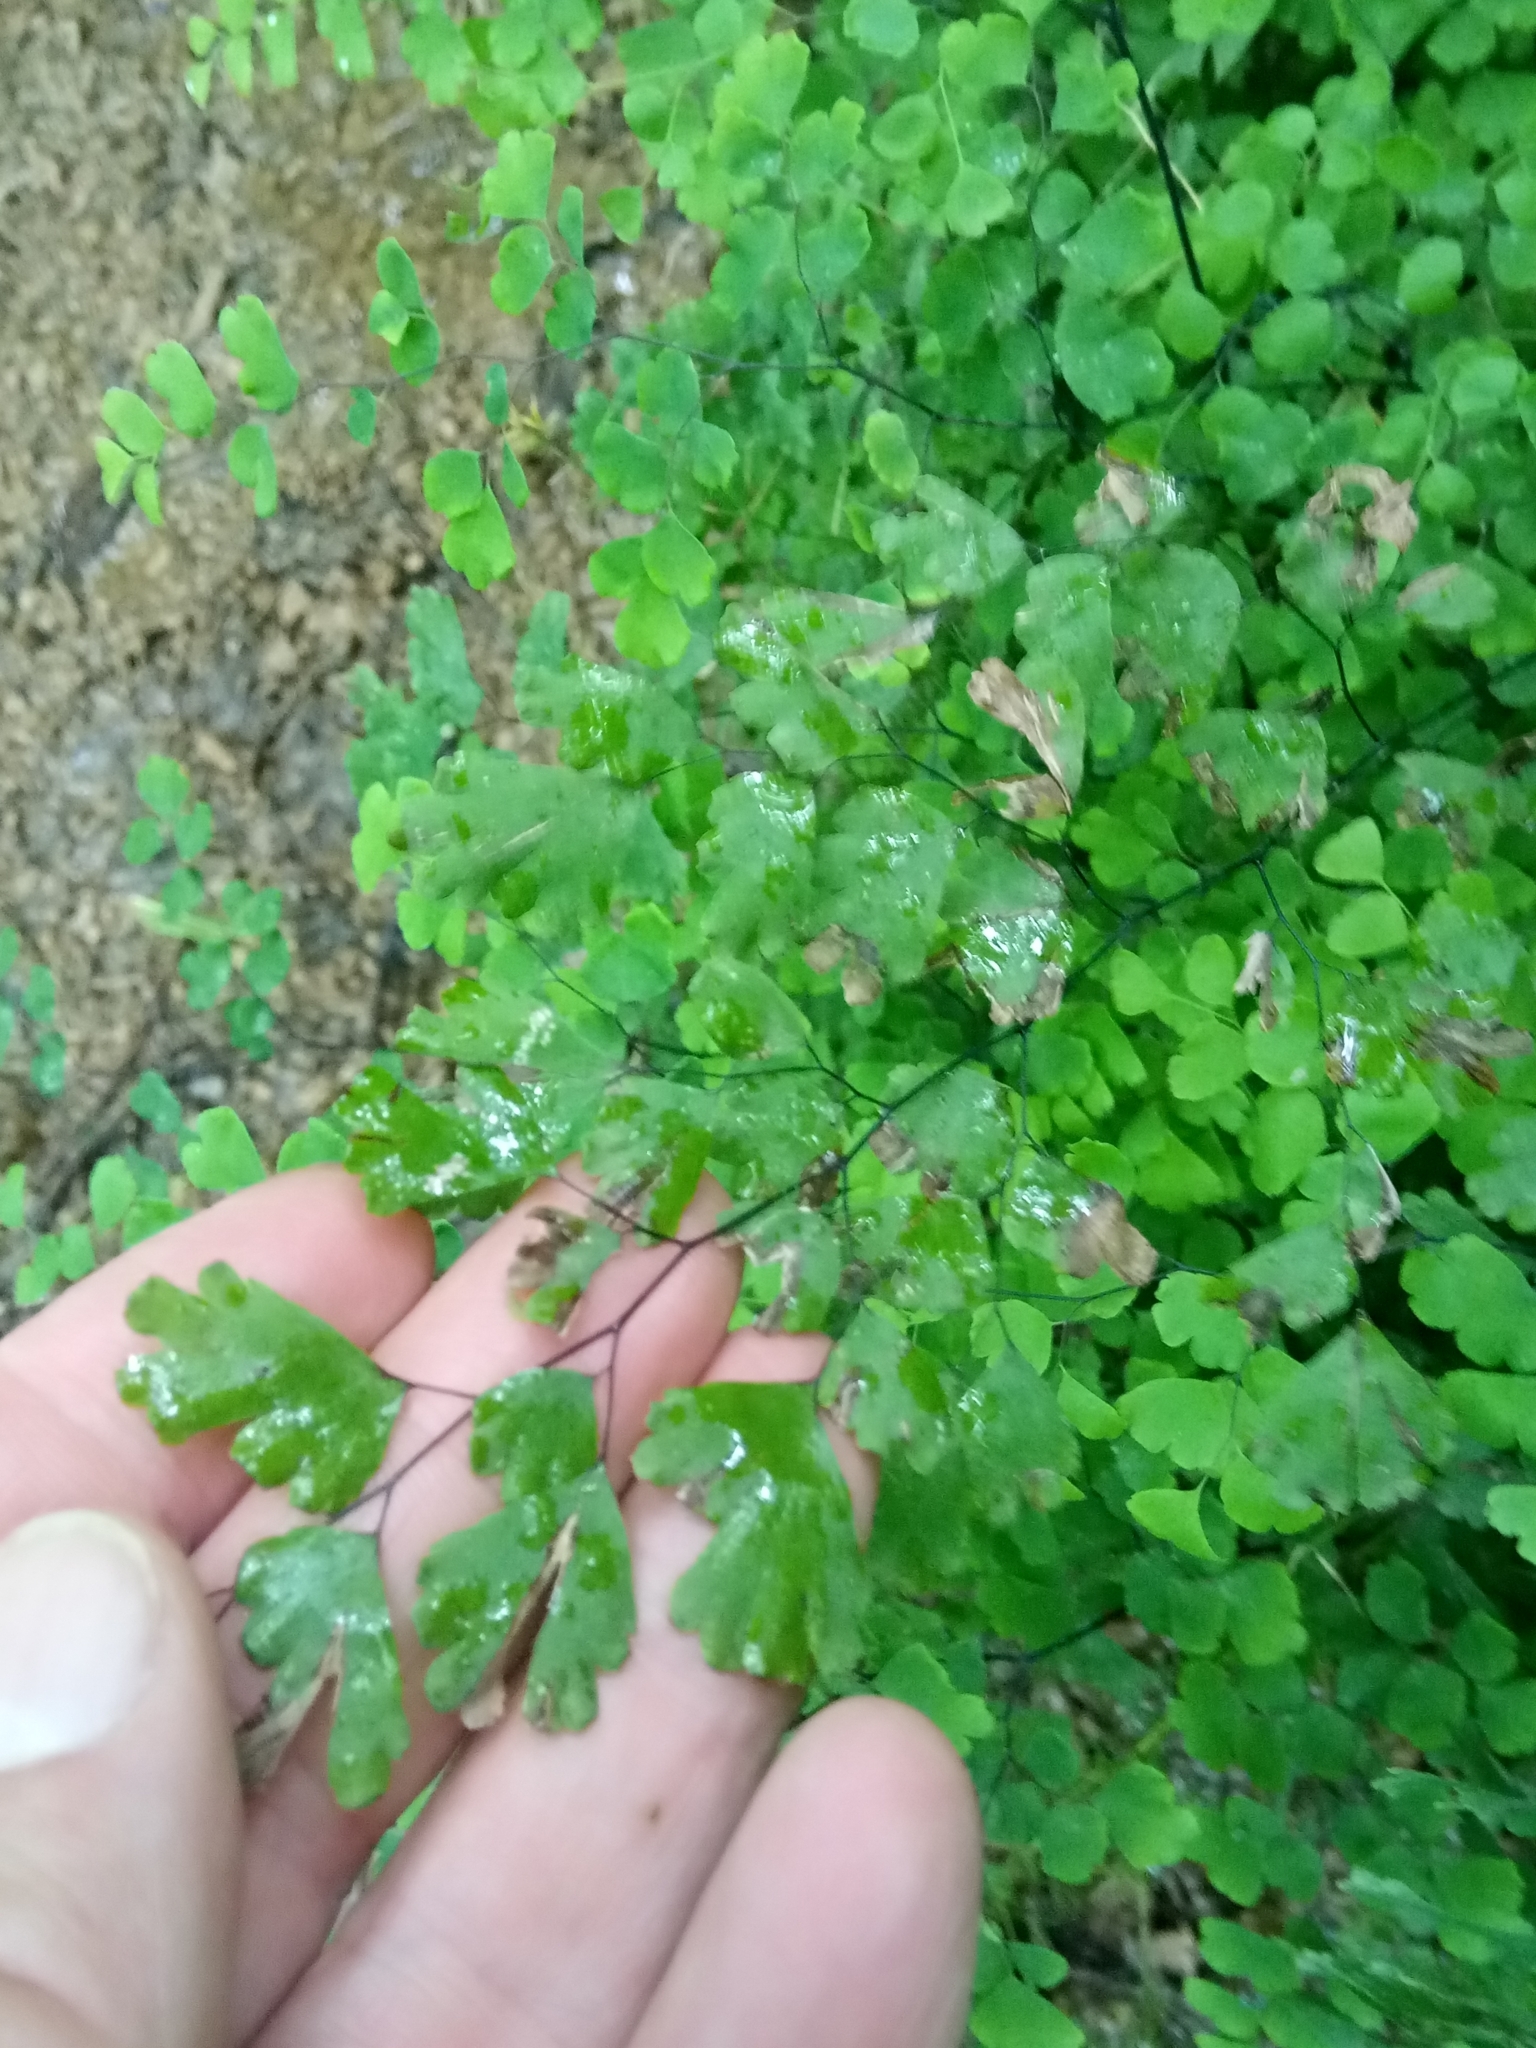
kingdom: Plantae
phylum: Tracheophyta
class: Polypodiopsida
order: Polypodiales
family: Pteridaceae
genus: Adiantum
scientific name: Adiantum capillus-veneris
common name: Maidenhair fern
